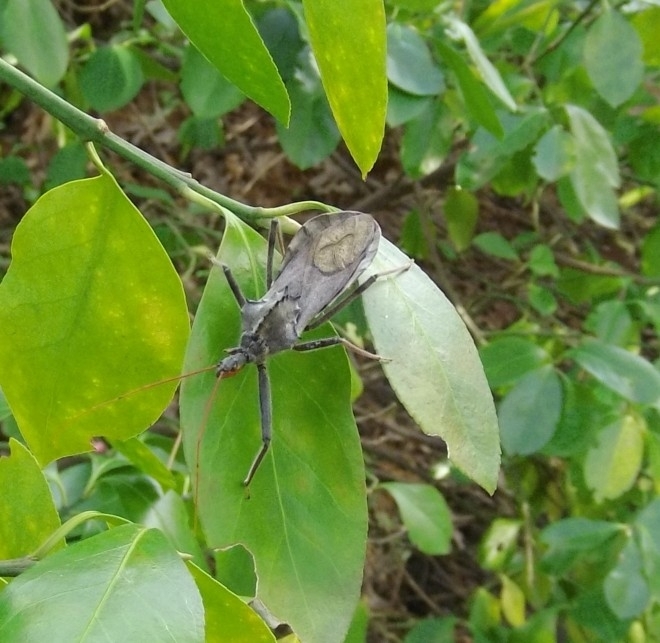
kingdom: Animalia
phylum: Arthropoda
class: Insecta
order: Hemiptera
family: Reduviidae
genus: Arilus
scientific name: Arilus cristatus
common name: North american wheel bug
